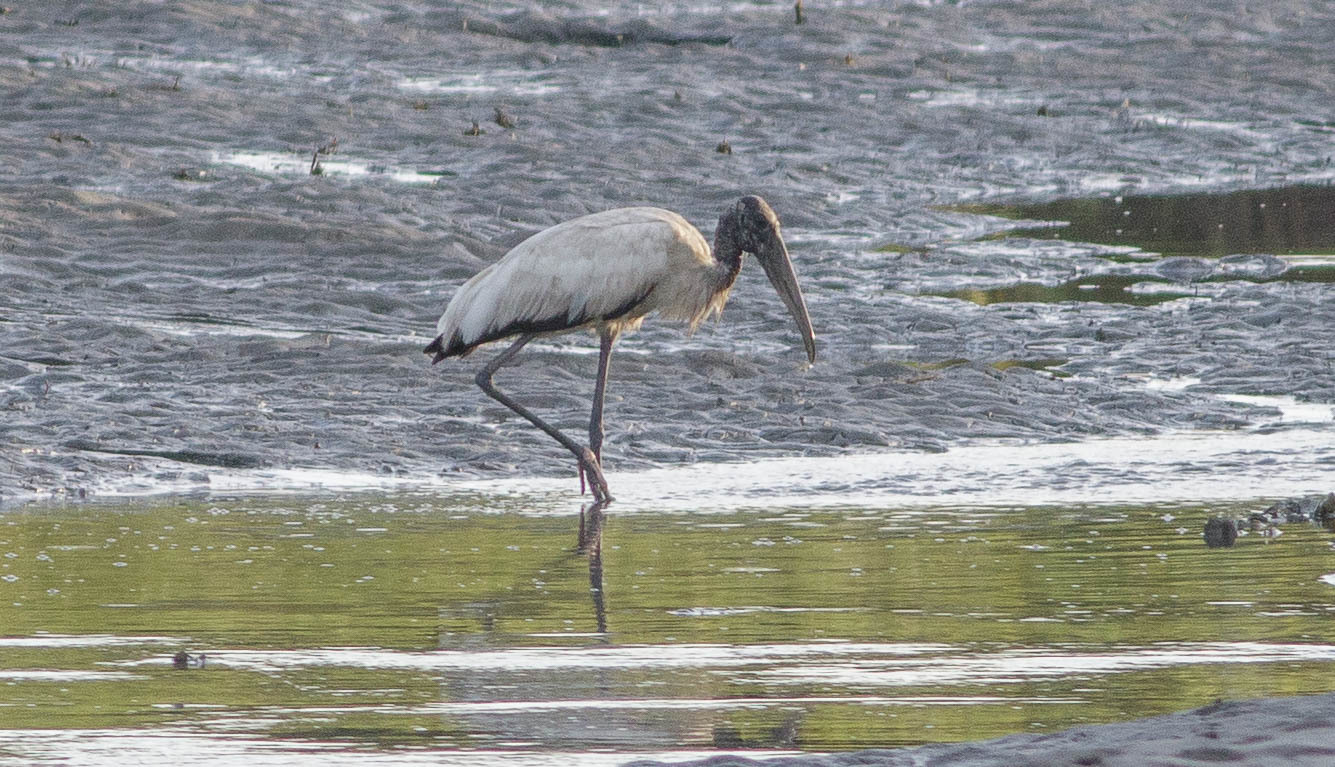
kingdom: Animalia
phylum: Chordata
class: Aves
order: Ciconiiformes
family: Ciconiidae
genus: Mycteria
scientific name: Mycteria americana
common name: Wood stork
